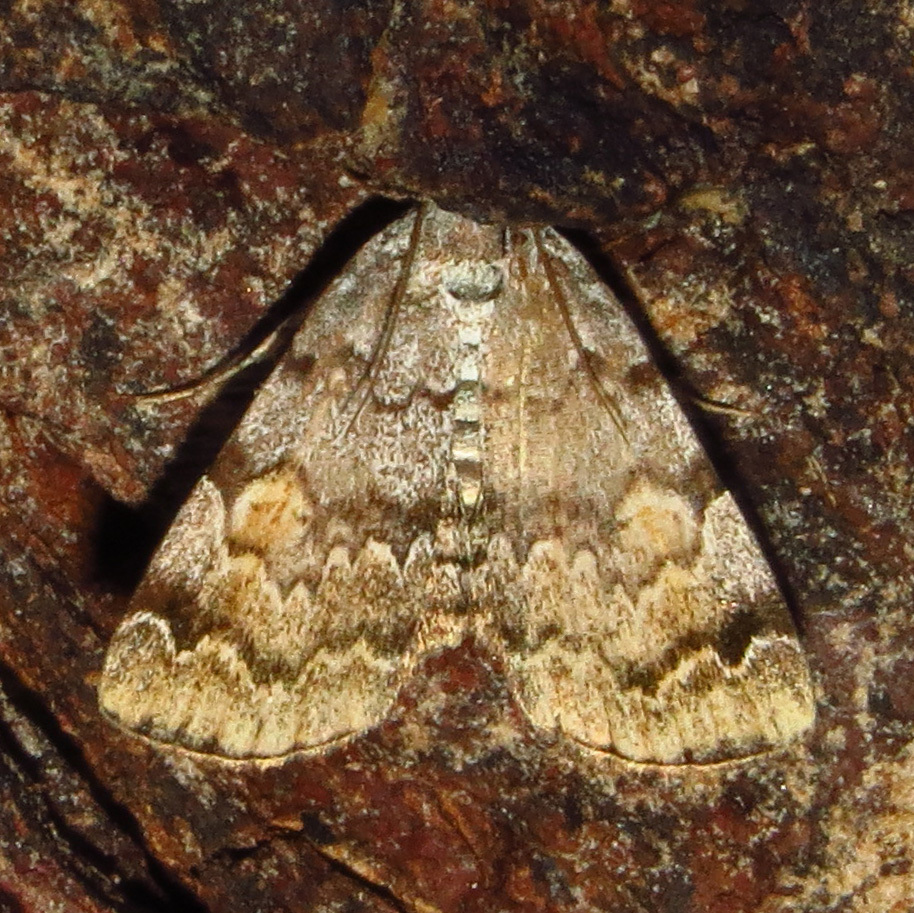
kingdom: Animalia
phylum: Arthropoda
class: Insecta
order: Lepidoptera
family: Erebidae
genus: Idia
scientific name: Idia americalis
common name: American idia moth
